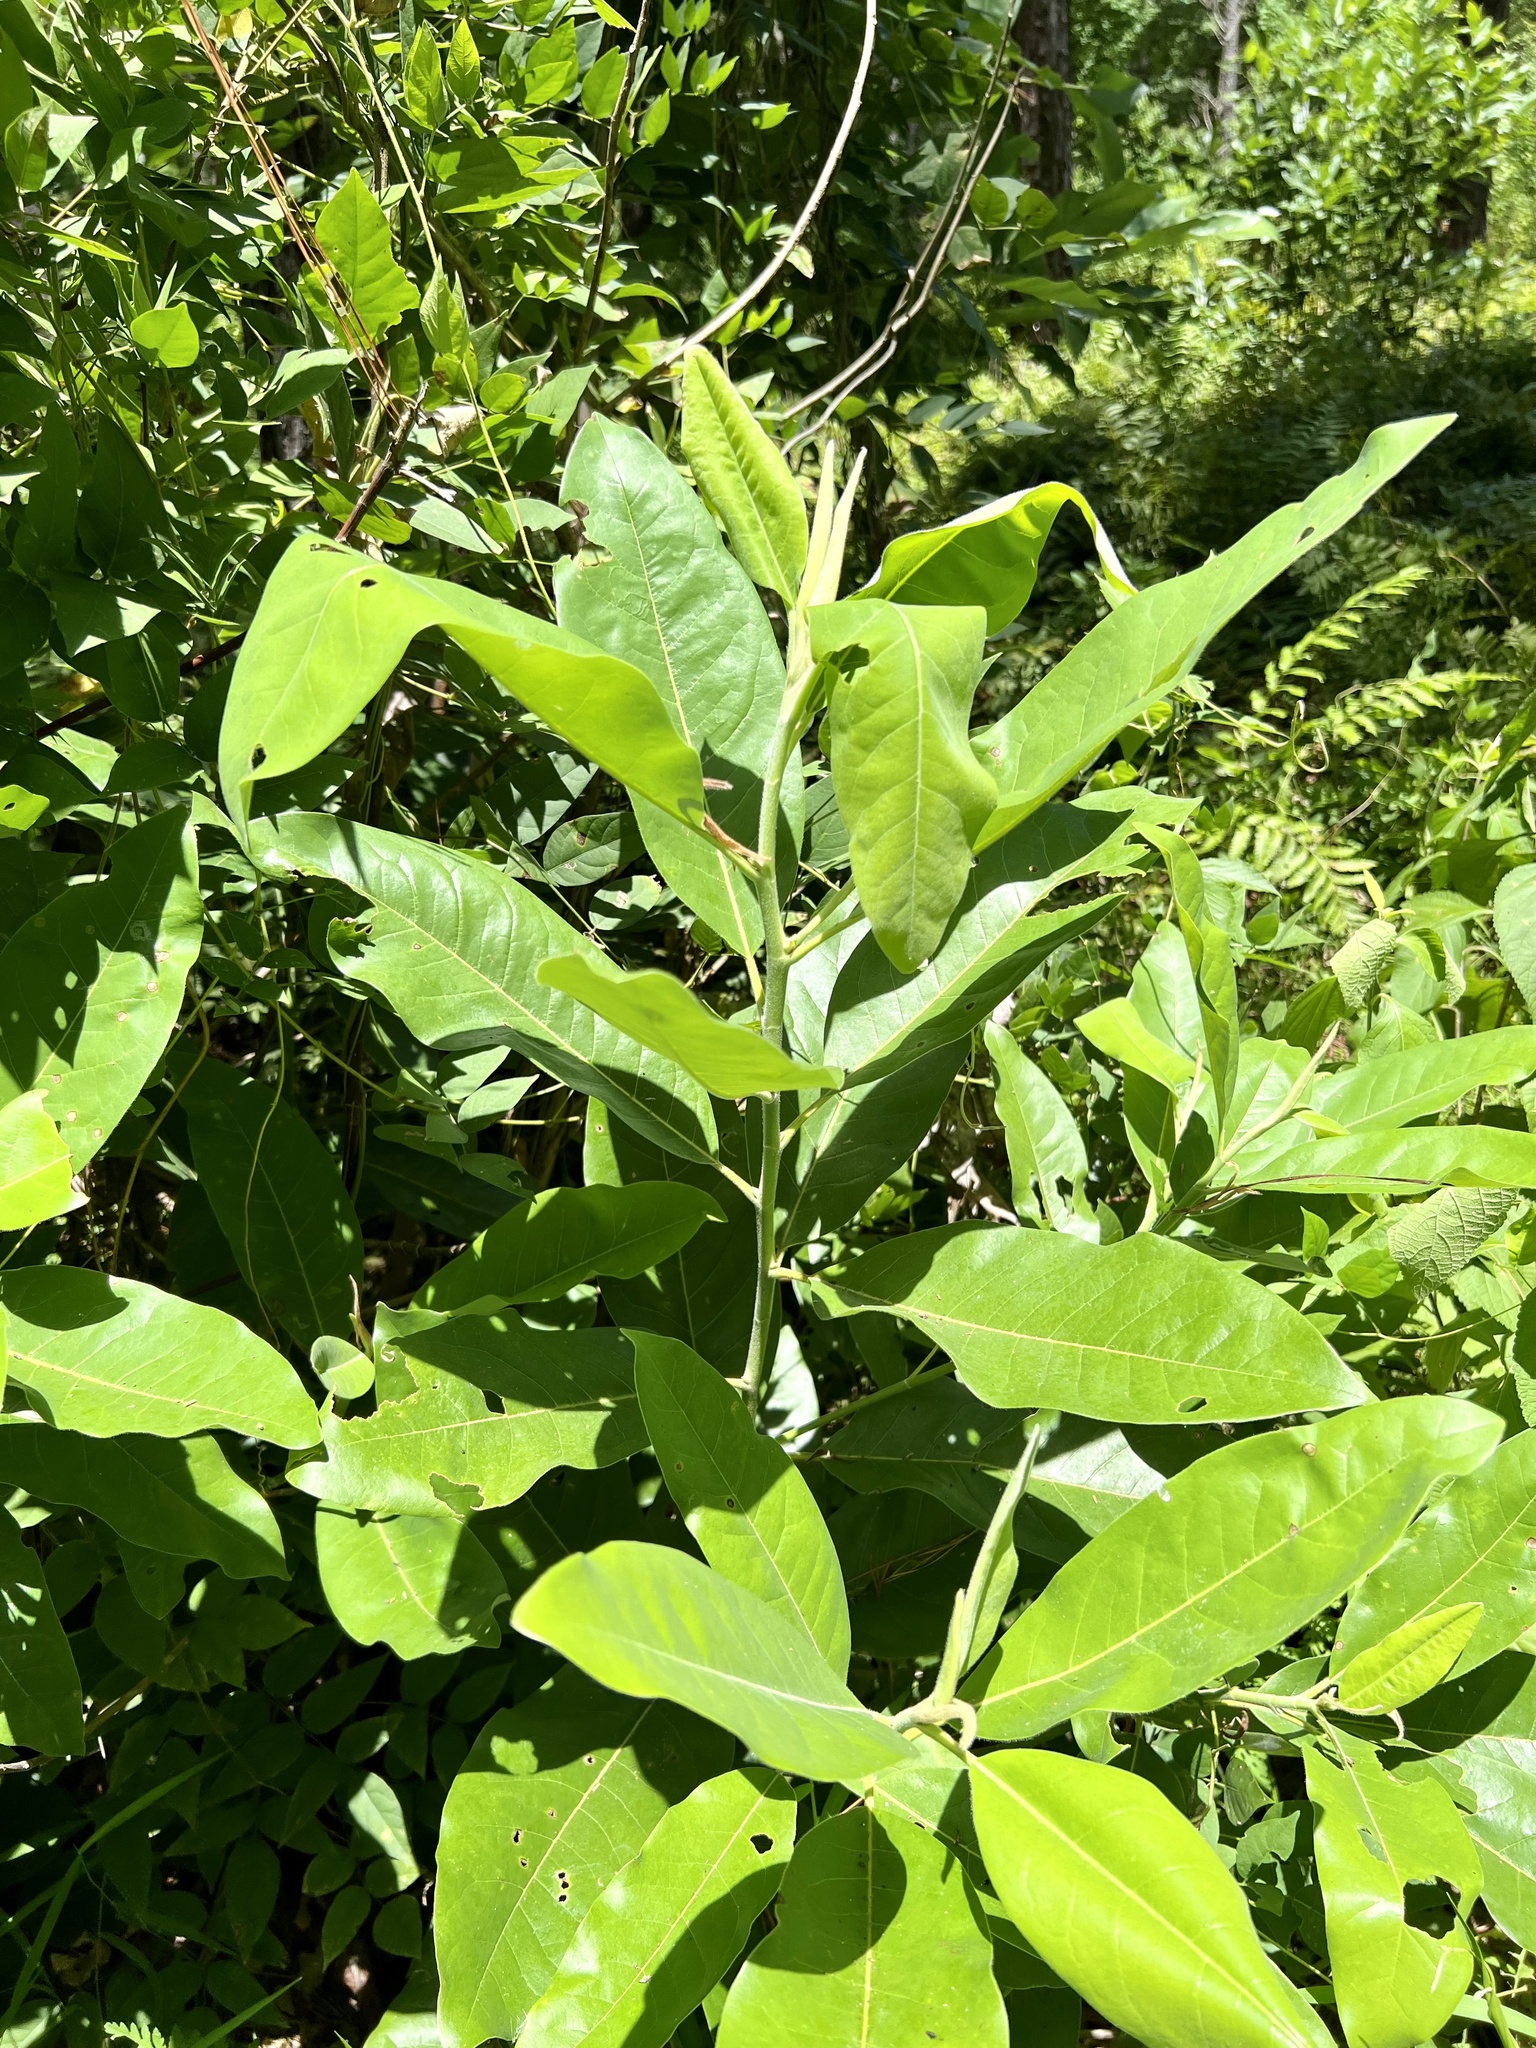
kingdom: Plantae
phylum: Tracheophyta
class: Magnoliopsida
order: Magnoliales
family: Magnoliaceae
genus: Magnolia
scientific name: Magnolia virginiana
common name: Swamp bay
